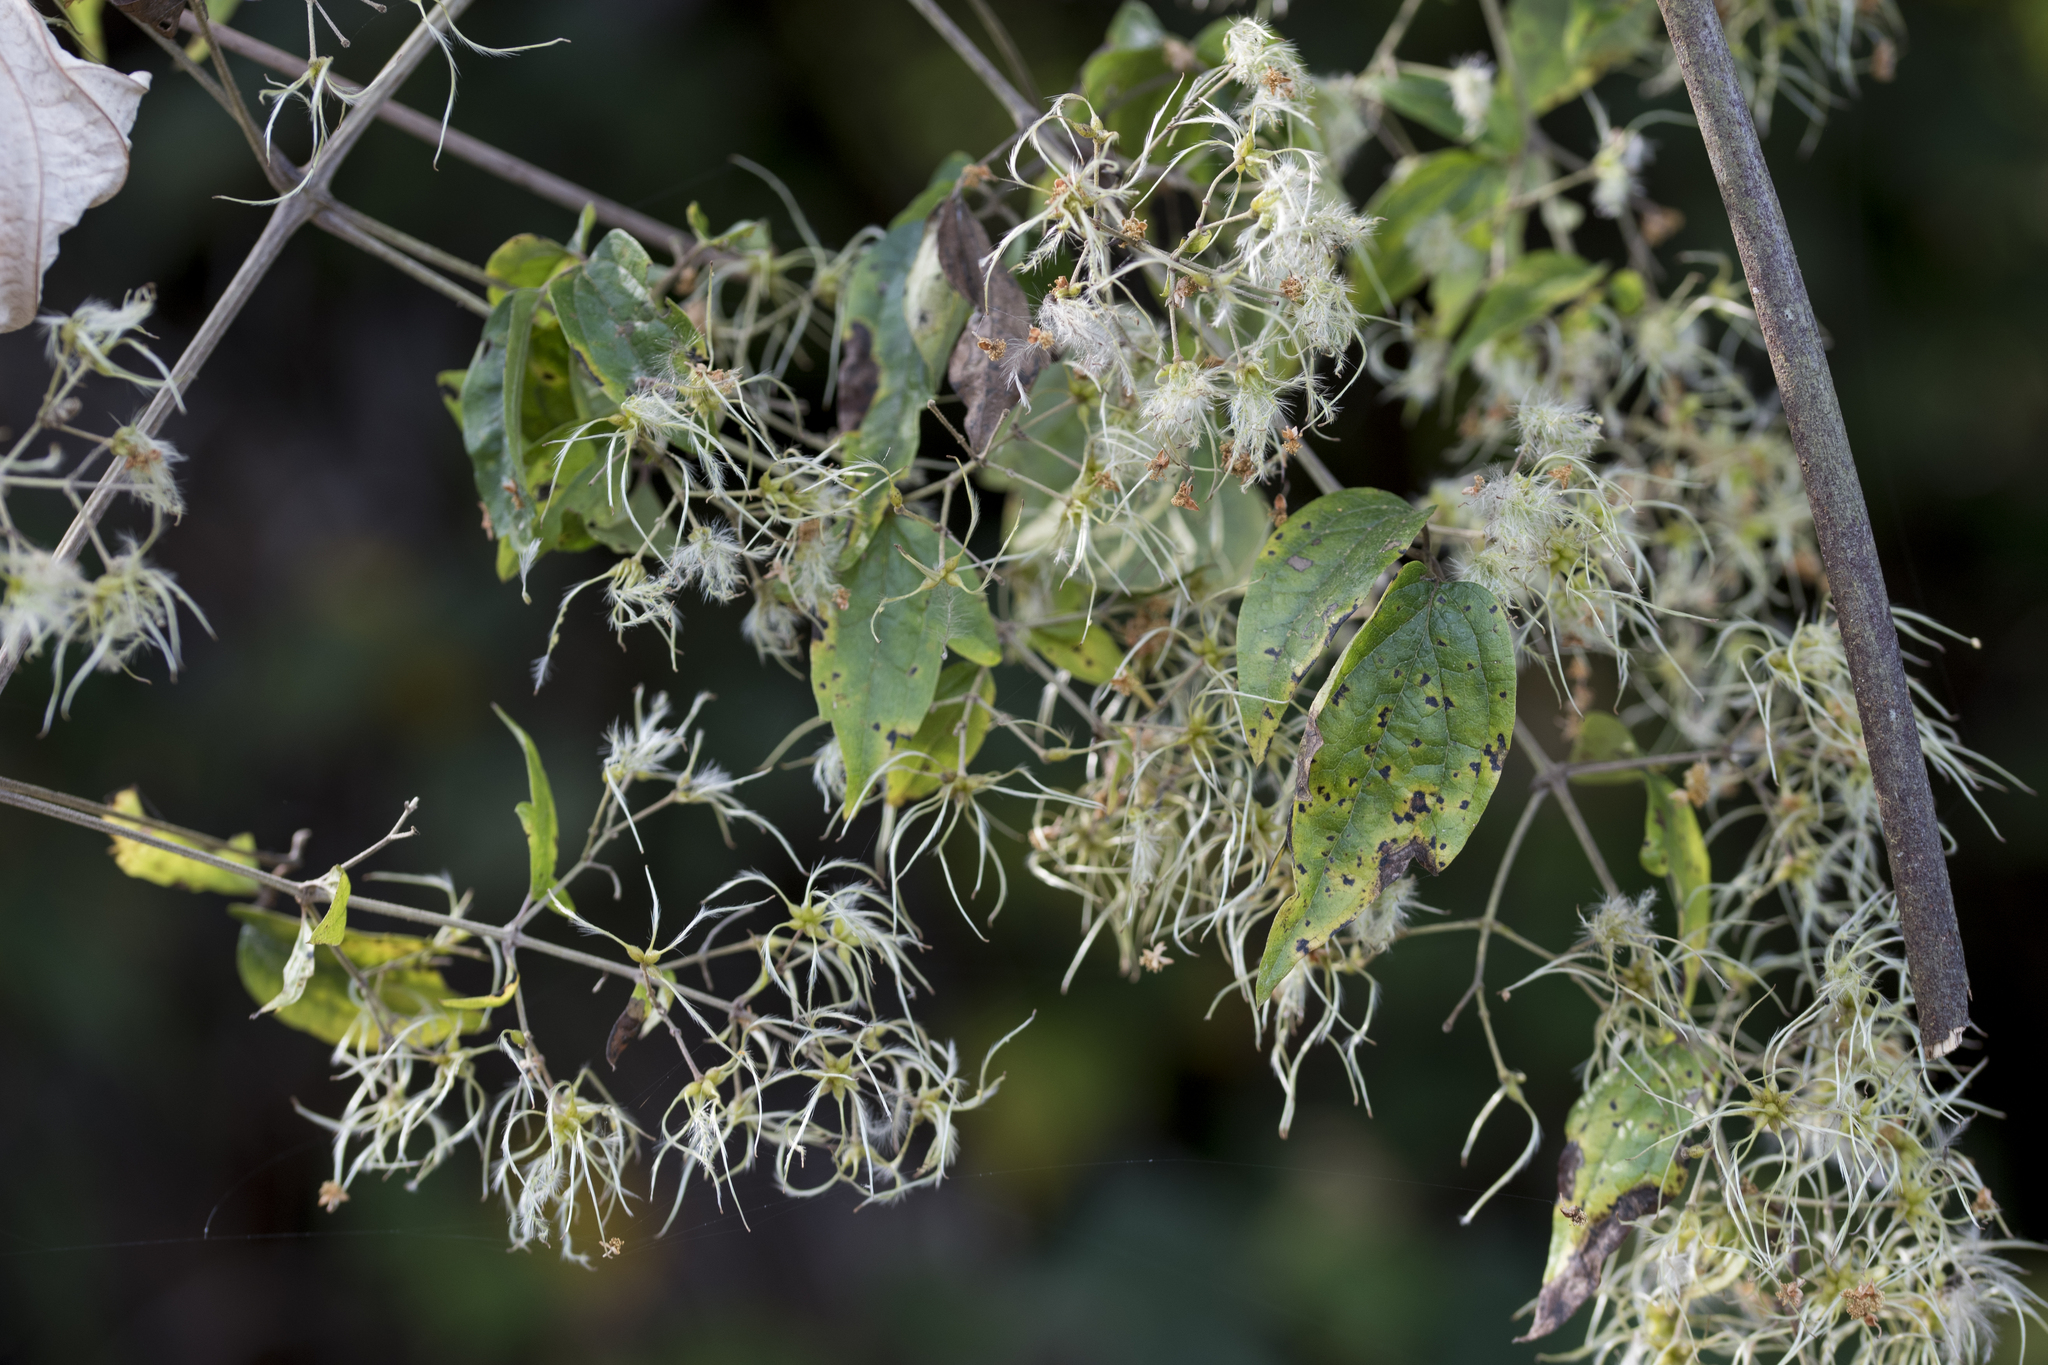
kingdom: Plantae
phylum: Tracheophyta
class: Magnoliopsida
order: Ranunculales
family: Ranunculaceae
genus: Clematis
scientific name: Clematis grata
